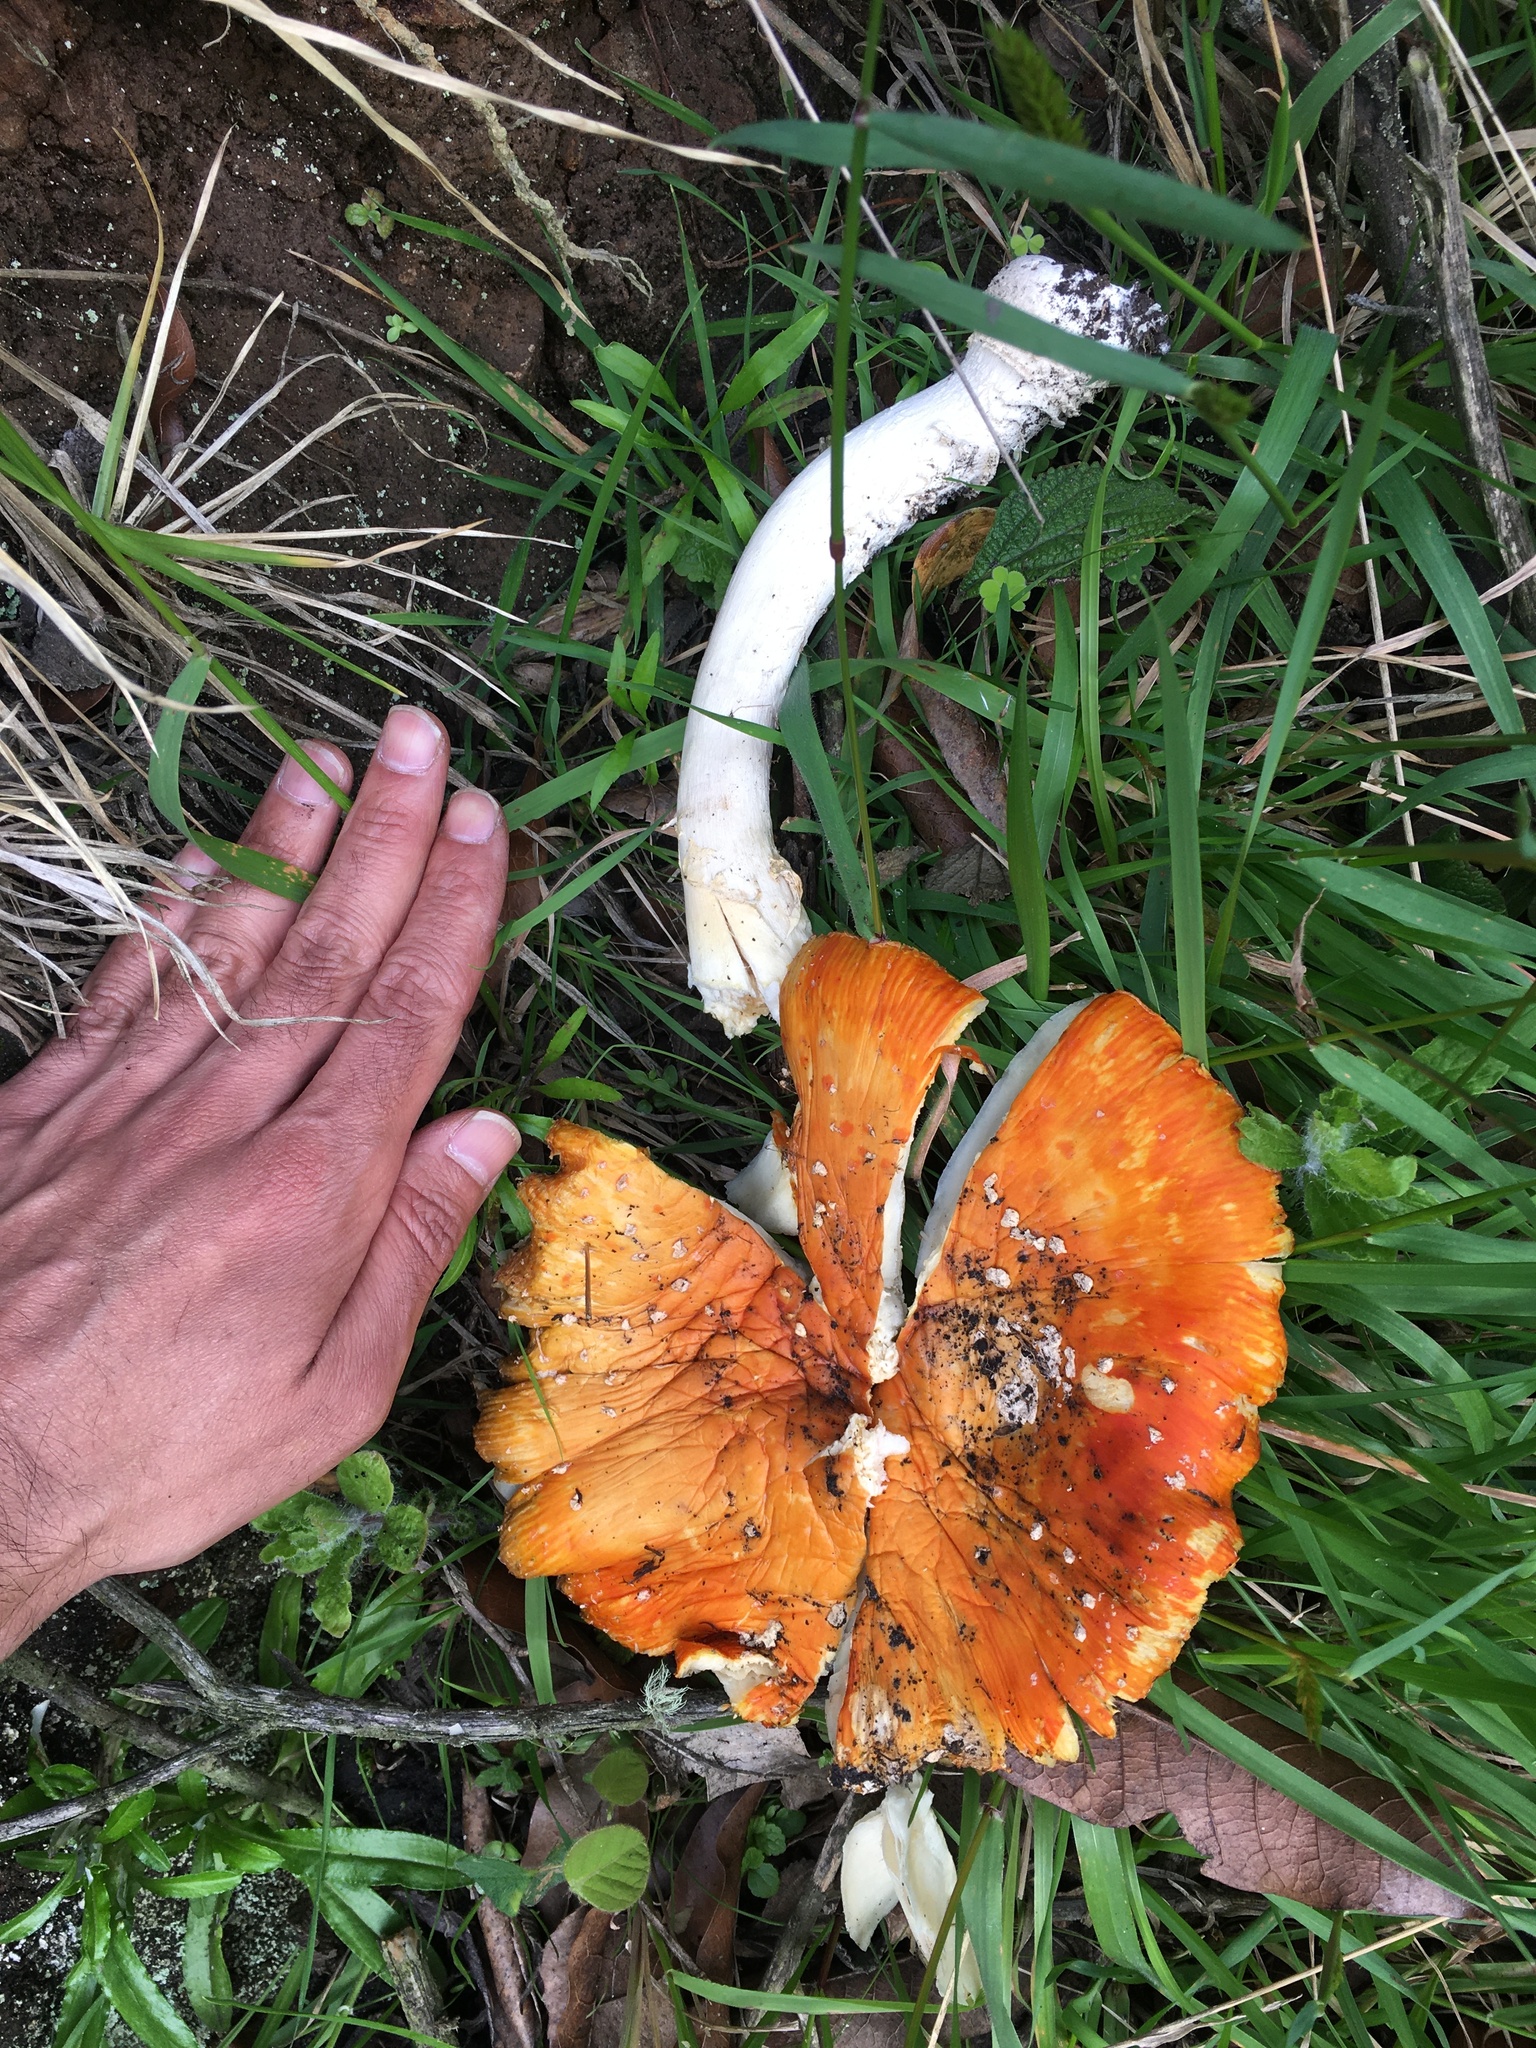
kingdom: Fungi
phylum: Basidiomycota
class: Agaricomycetes
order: Agaricales
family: Amanitaceae
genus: Amanita
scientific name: Amanita muscaria
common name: Fly agaric
